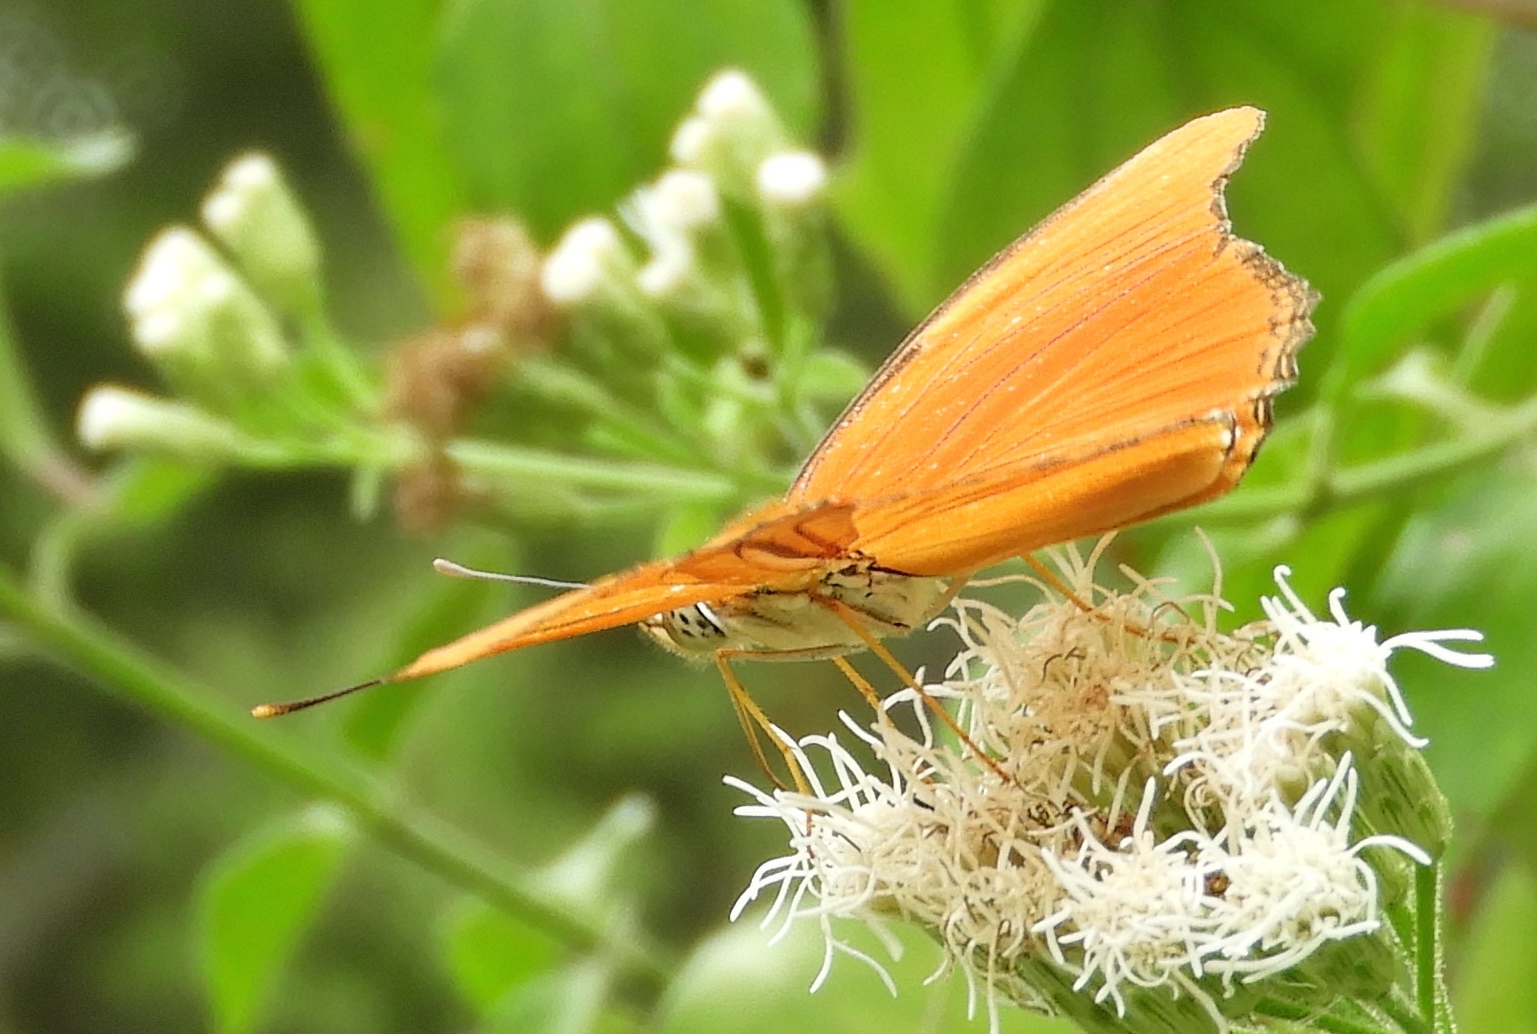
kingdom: Animalia
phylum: Arthropoda
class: Insecta
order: Lepidoptera
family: Nymphalidae
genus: Dryas
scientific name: Dryas iulia
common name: Flambeau
